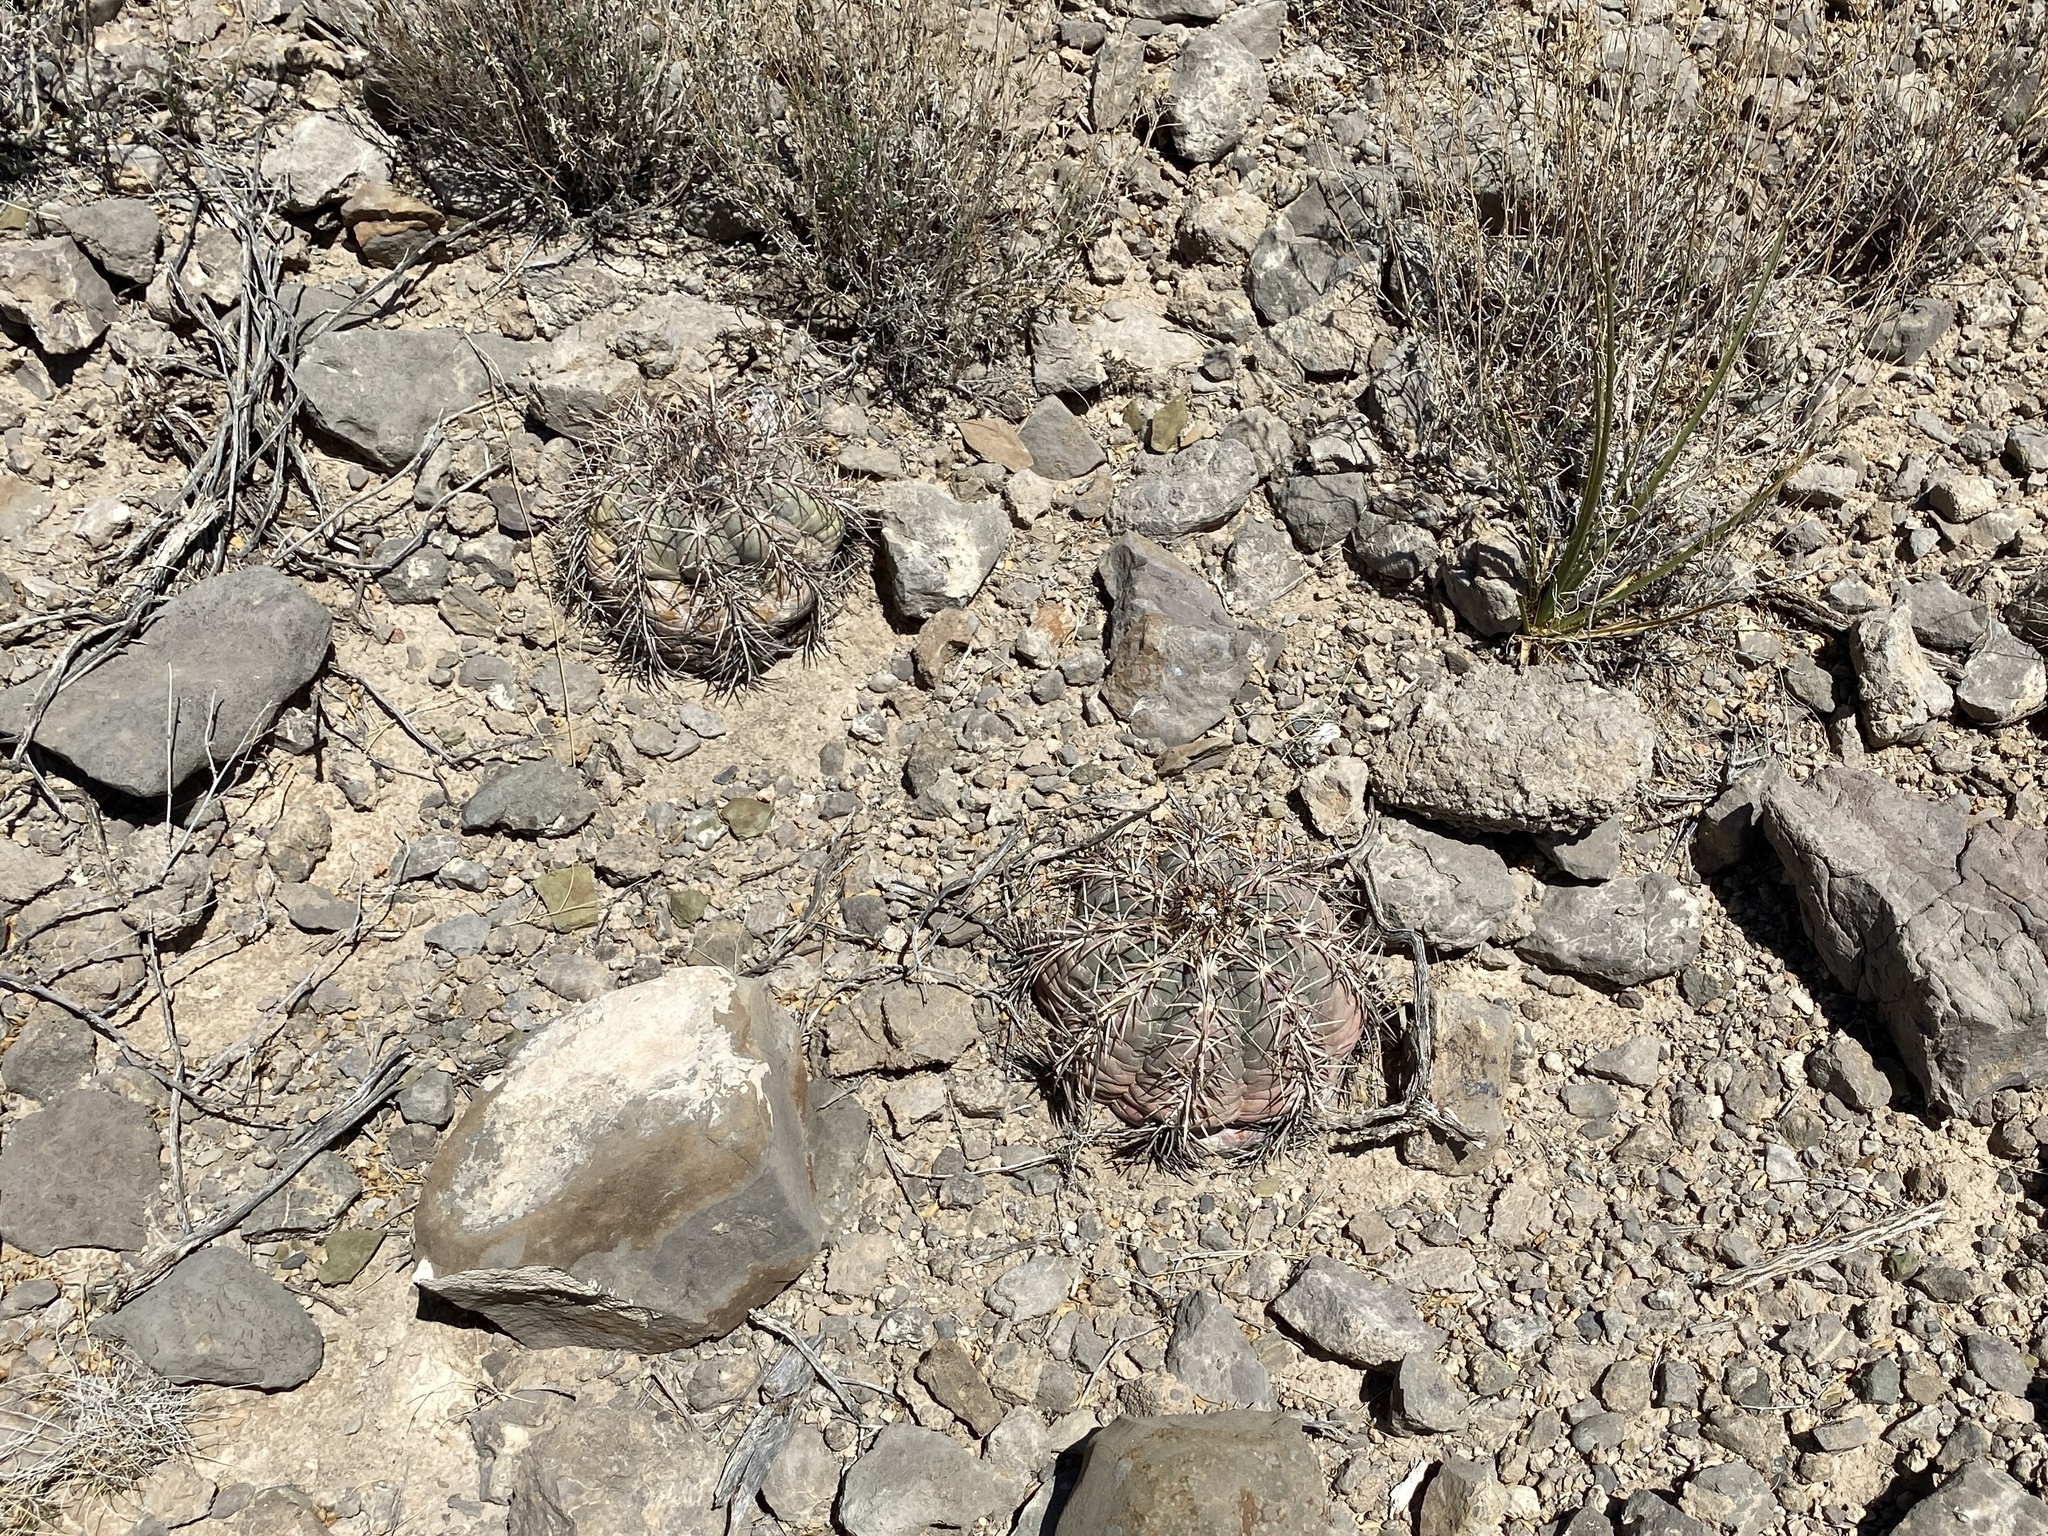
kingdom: Plantae
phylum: Tracheophyta
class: Magnoliopsida
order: Caryophyllales
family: Cactaceae
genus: Echinocactus
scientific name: Echinocactus horizonthalonius
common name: Devilshead
